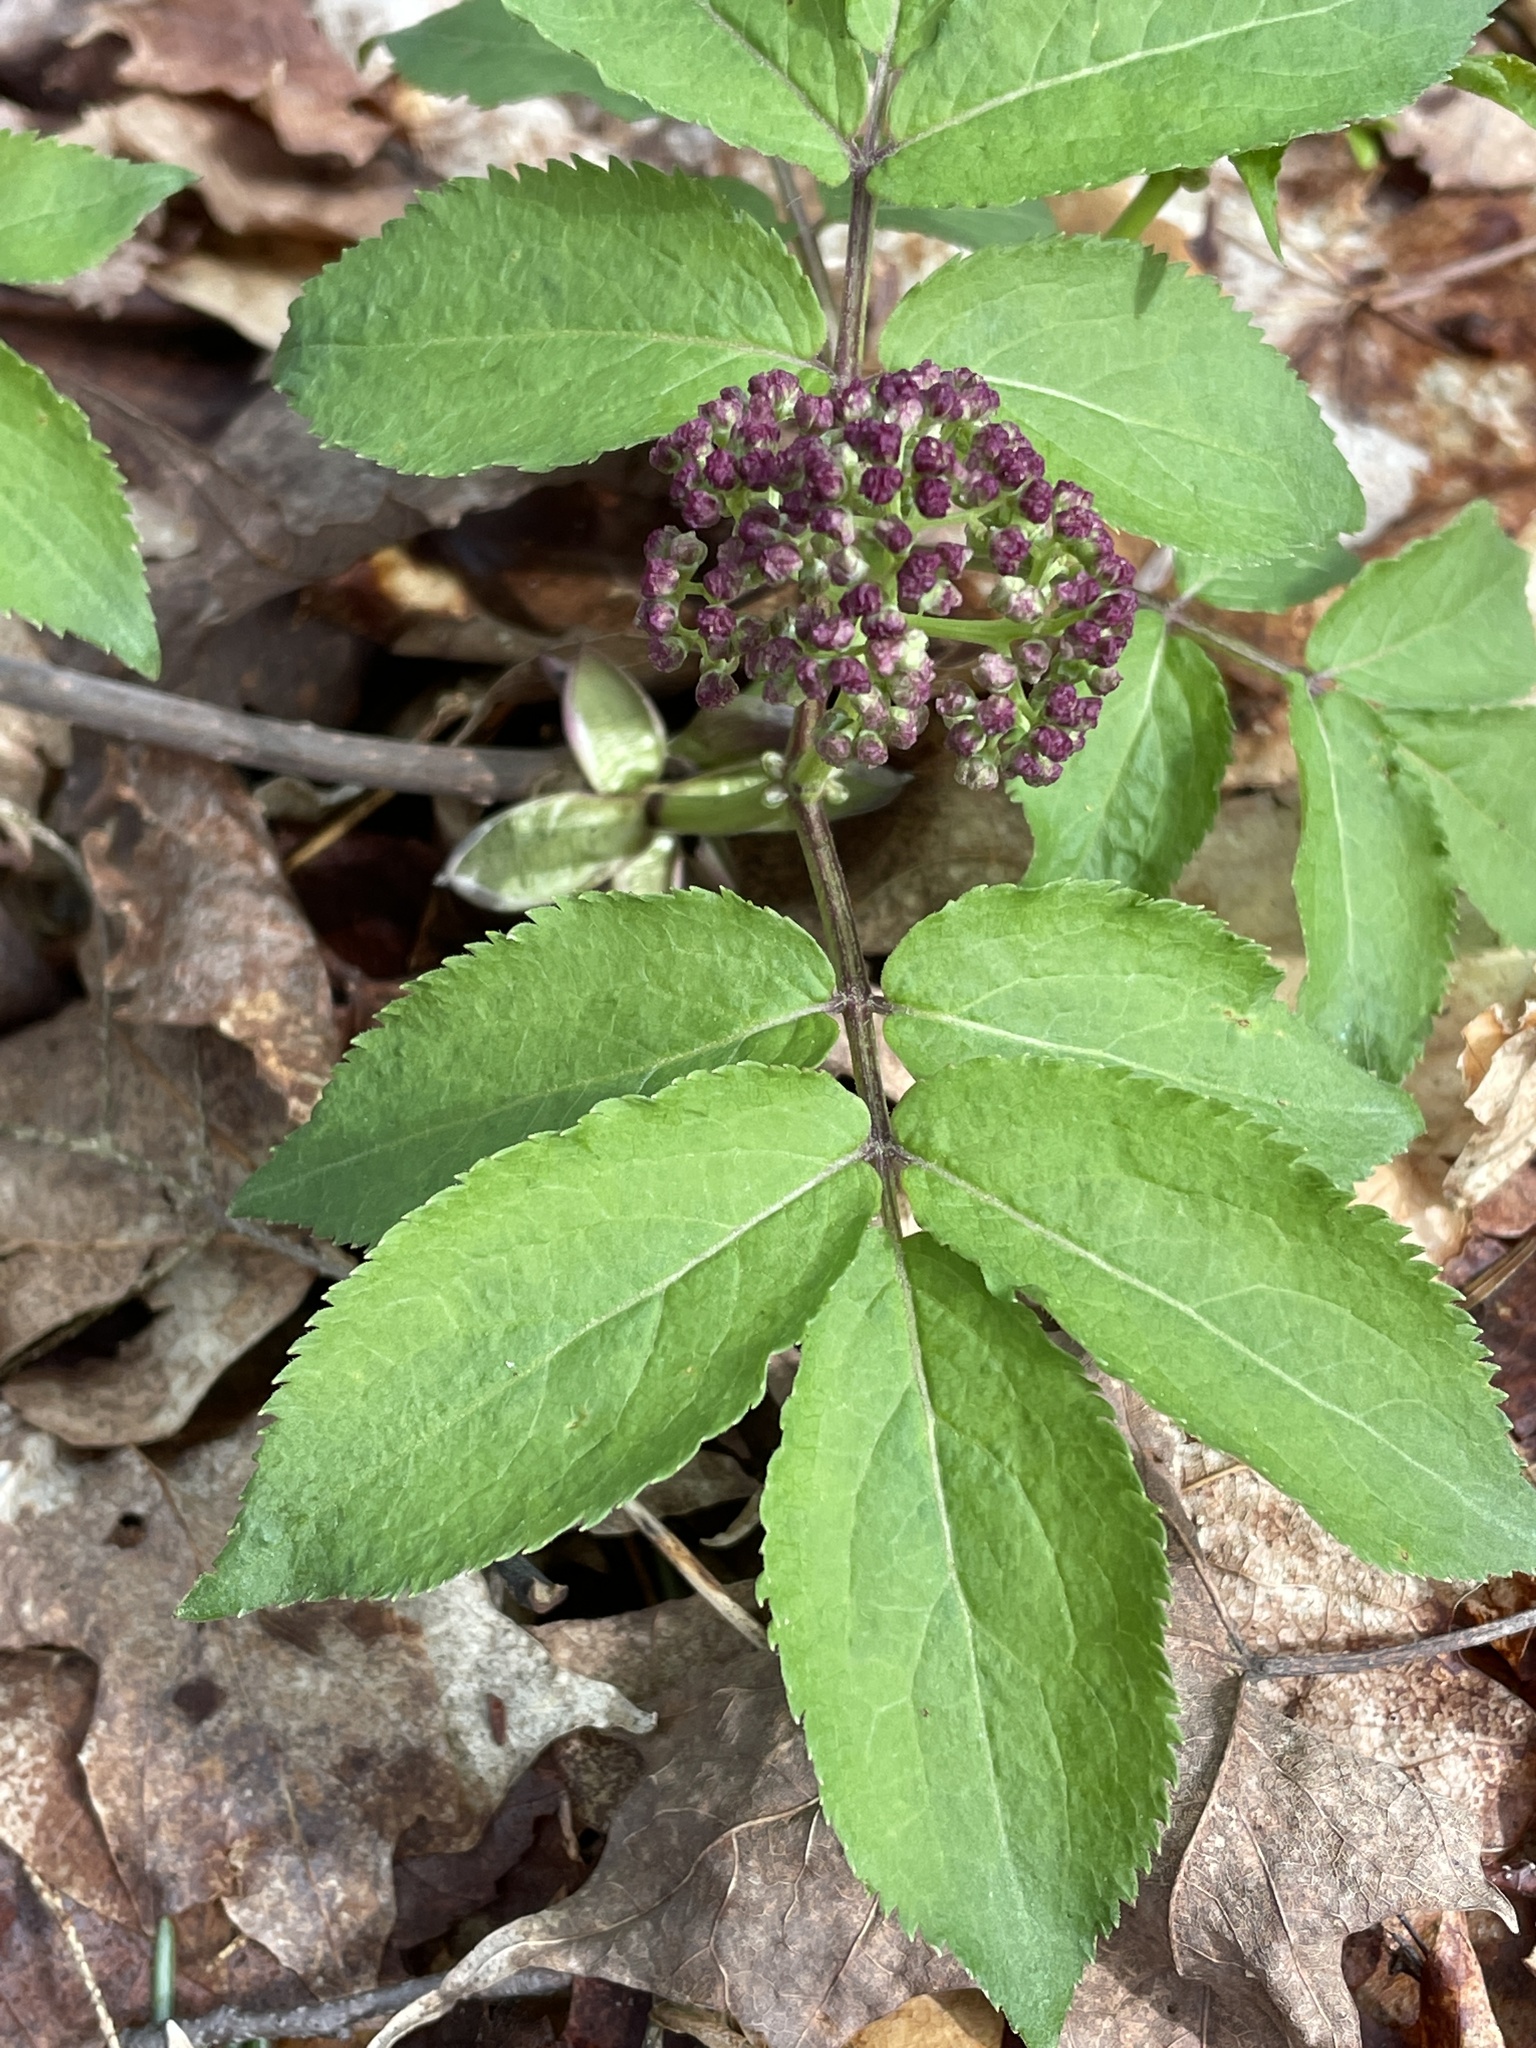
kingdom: Plantae
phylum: Tracheophyta
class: Magnoliopsida
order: Dipsacales
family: Viburnaceae
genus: Sambucus
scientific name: Sambucus racemosa
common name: Red-berried elder
